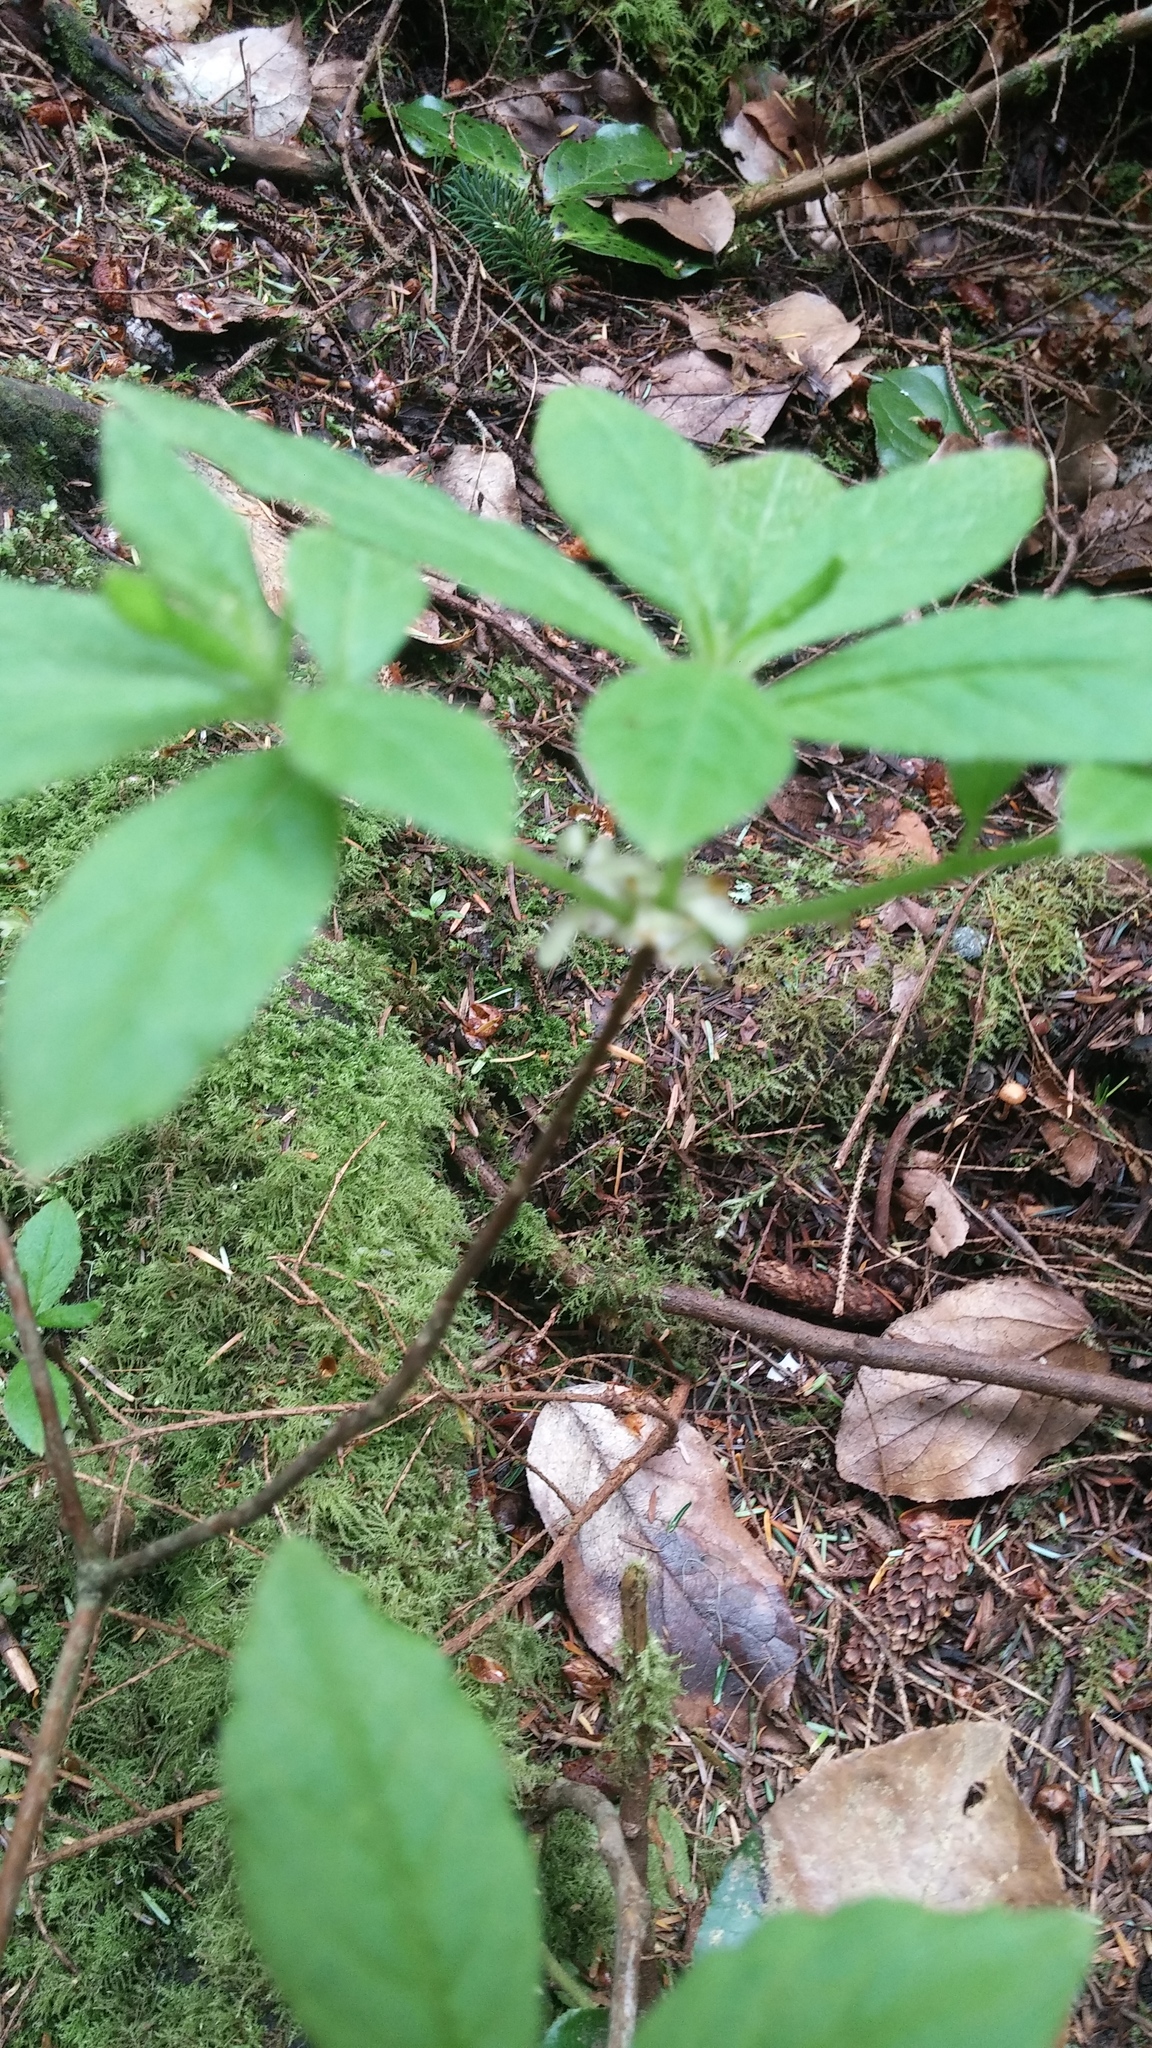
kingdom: Plantae
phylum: Tracheophyta
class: Magnoliopsida
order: Ericales
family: Ericaceae
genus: Rhododendron
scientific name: Rhododendron menziesii
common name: Pacific menziesia
